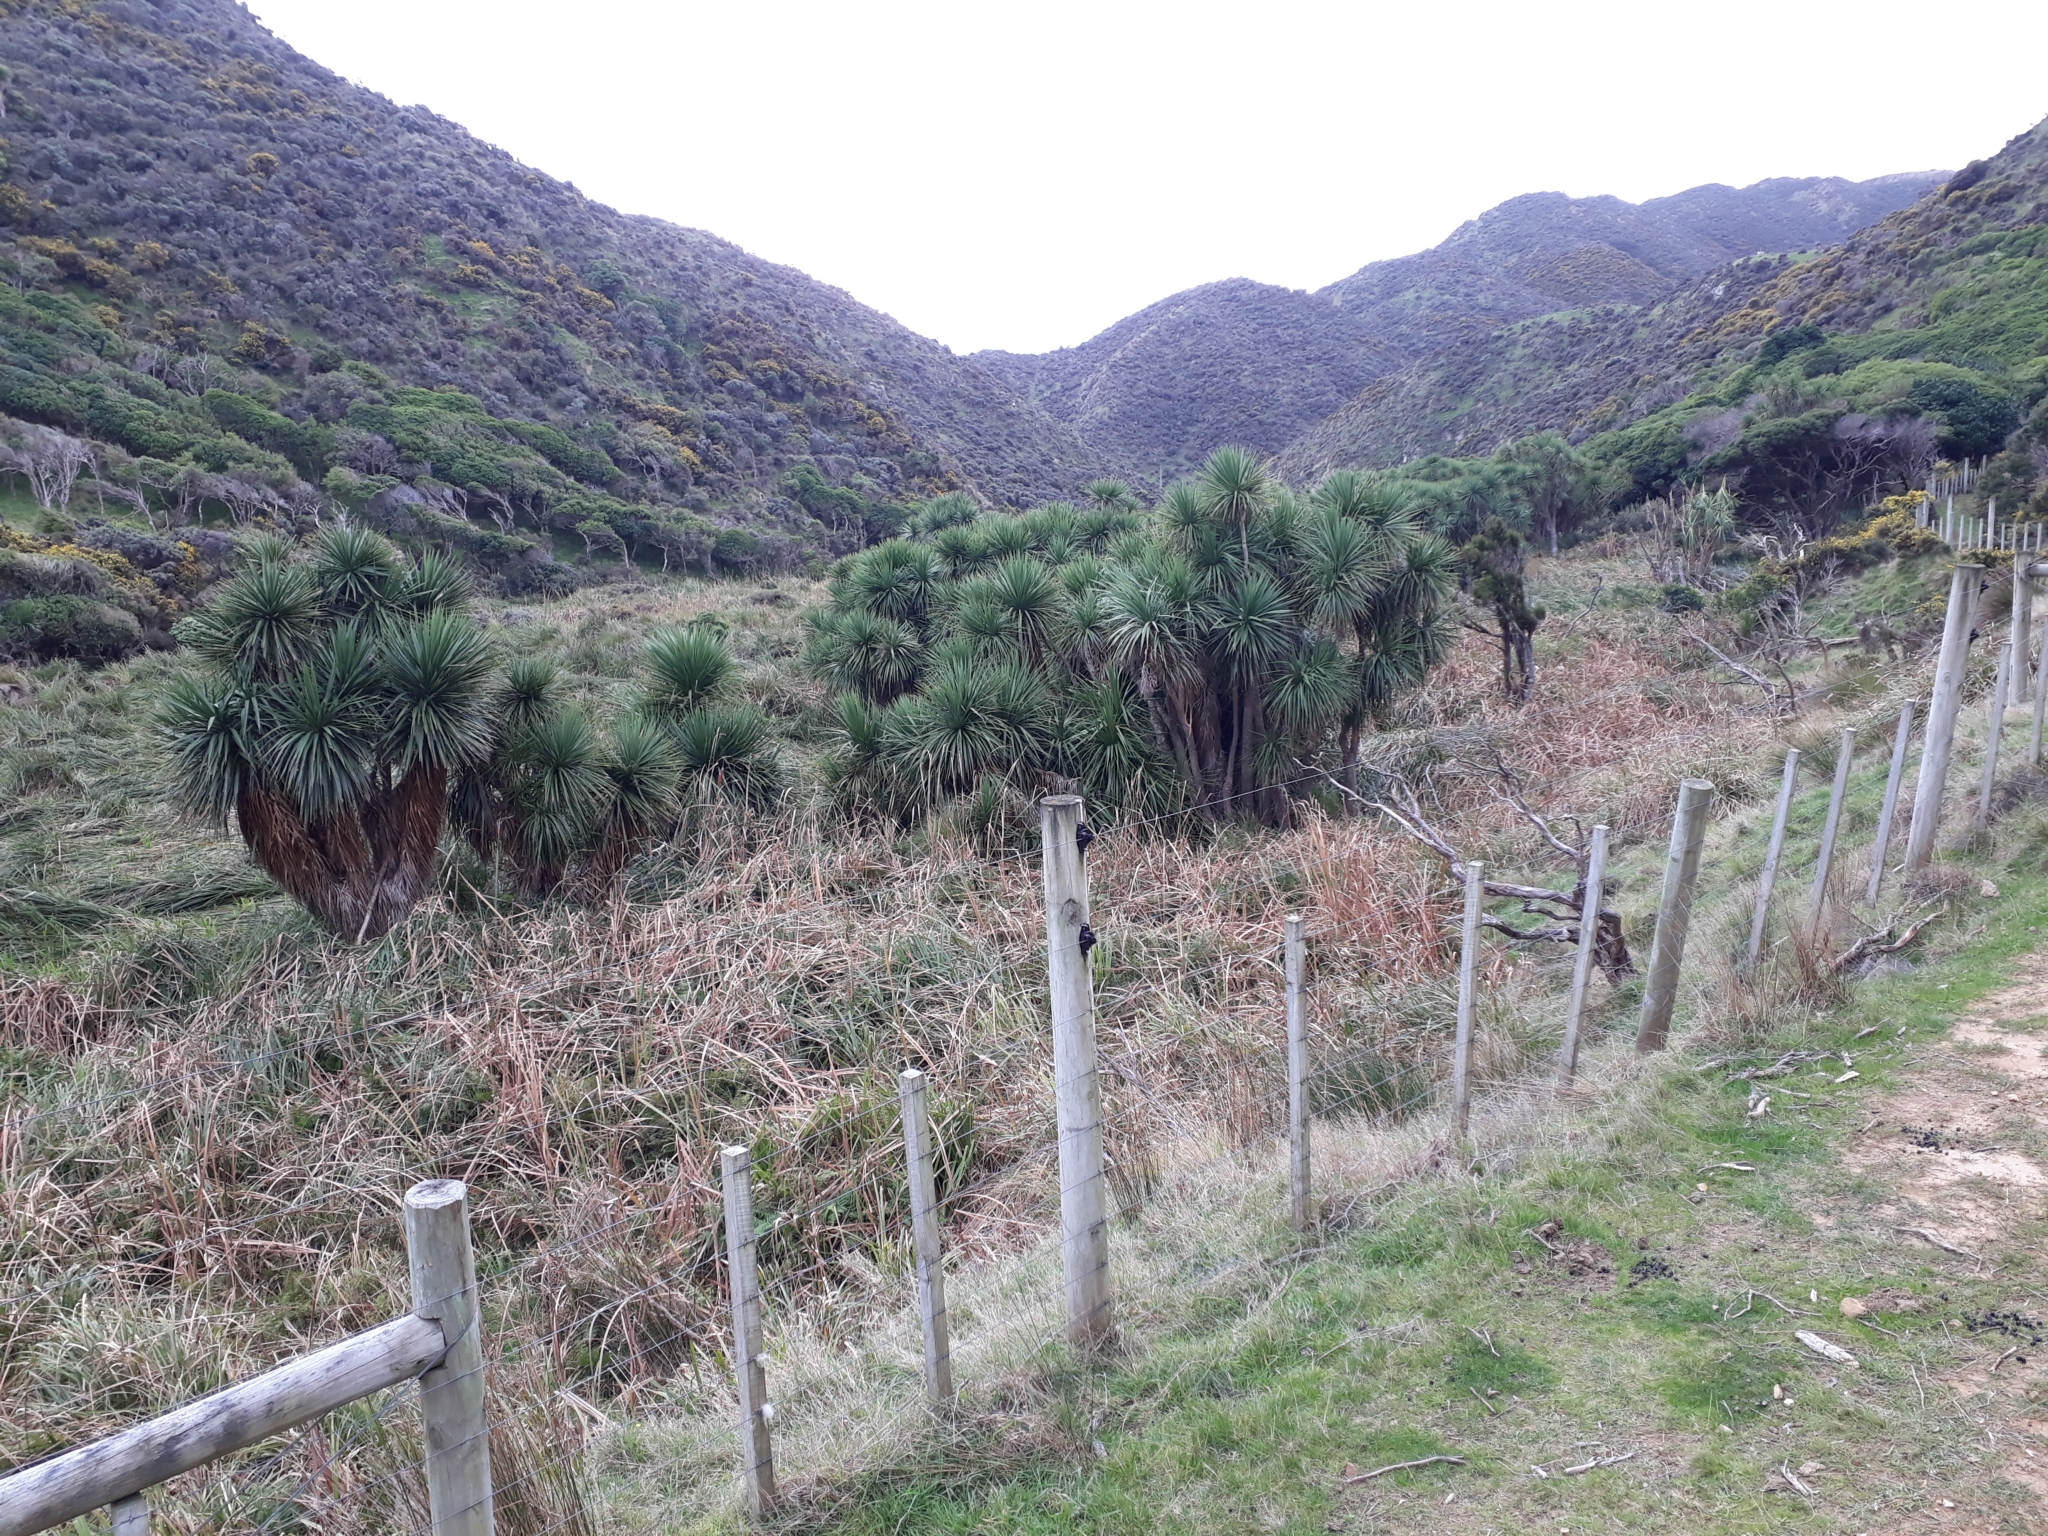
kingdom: Plantae
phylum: Tracheophyta
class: Liliopsida
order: Asparagales
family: Asparagaceae
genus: Cordyline
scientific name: Cordyline australis
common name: Cabbage-palm
